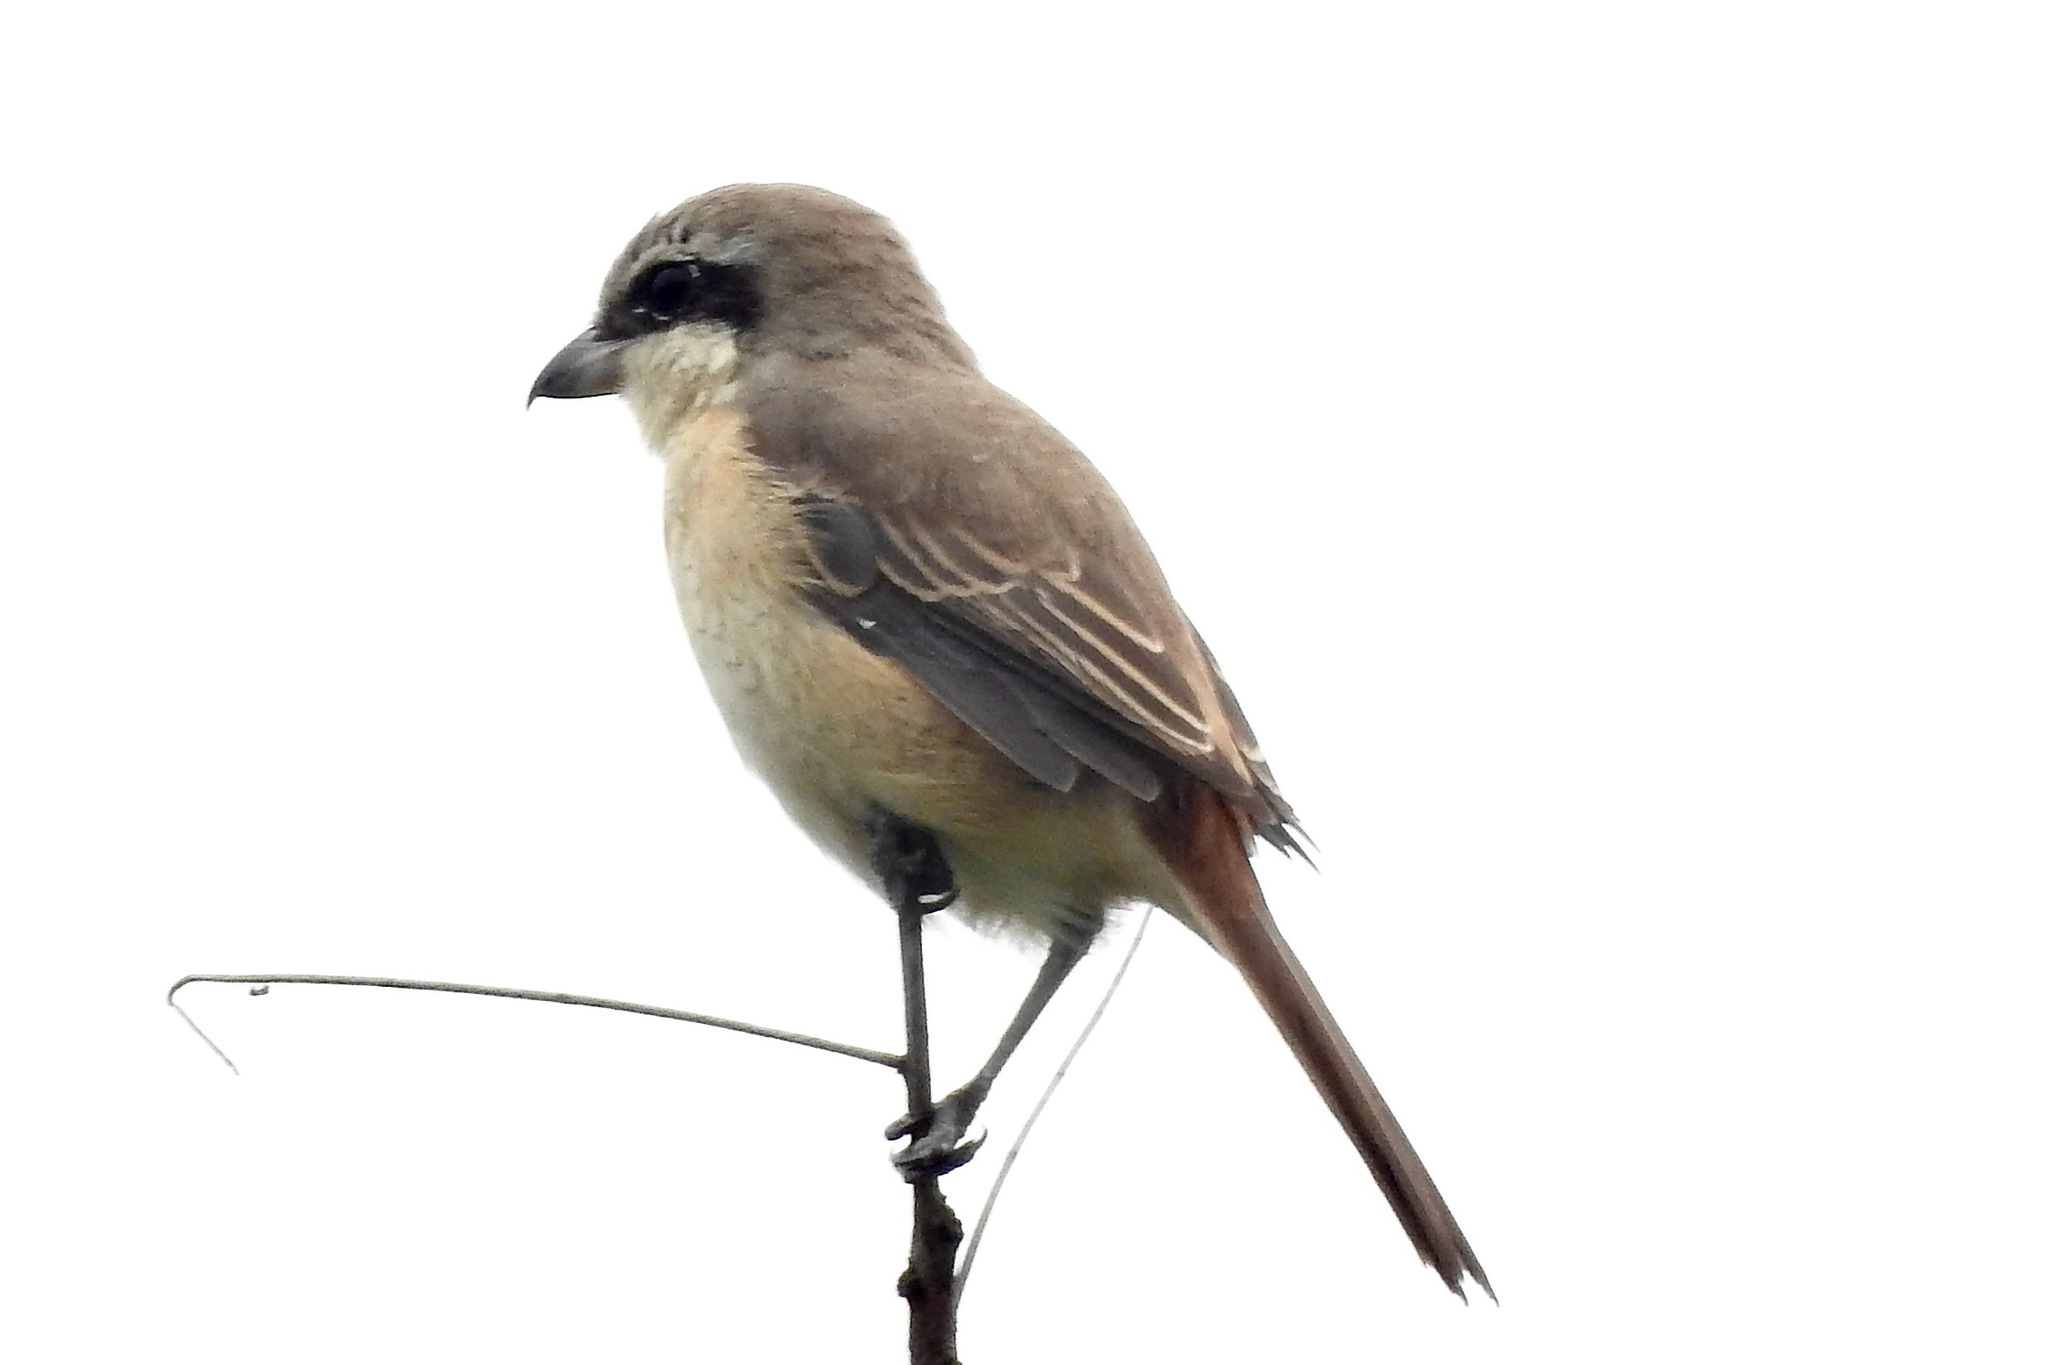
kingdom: Animalia
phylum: Chordata
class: Aves
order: Passeriformes
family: Laniidae
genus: Lanius
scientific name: Lanius cristatus
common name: Brown shrike
